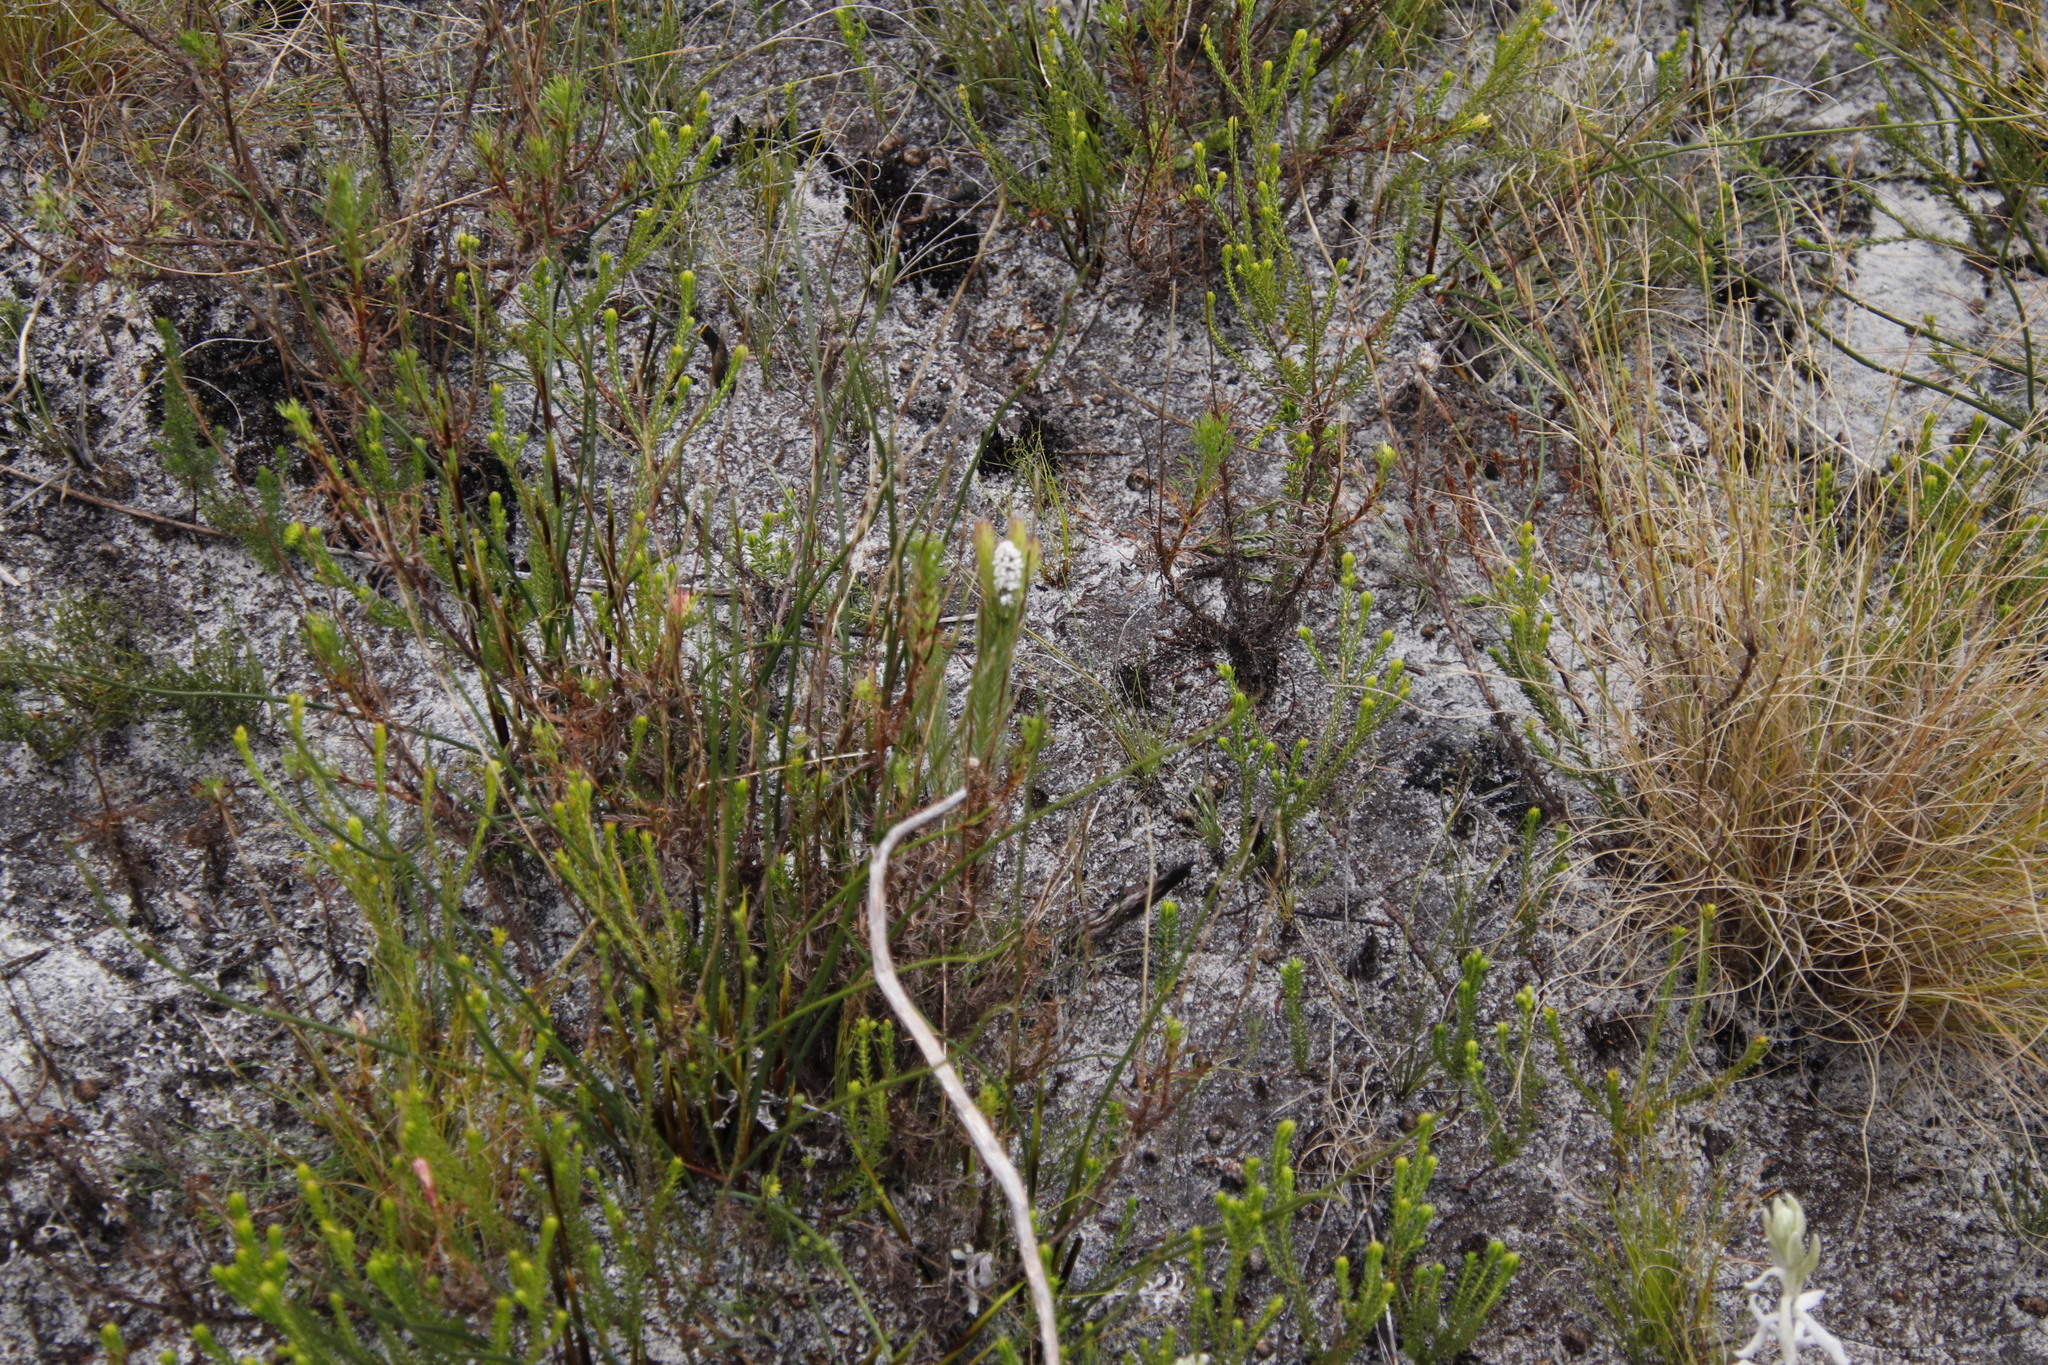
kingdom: Plantae
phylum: Tracheophyta
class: Magnoliopsida
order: Proteales
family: Proteaceae
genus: Spatalla
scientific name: Spatalla mollis
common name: Woolly spoon
